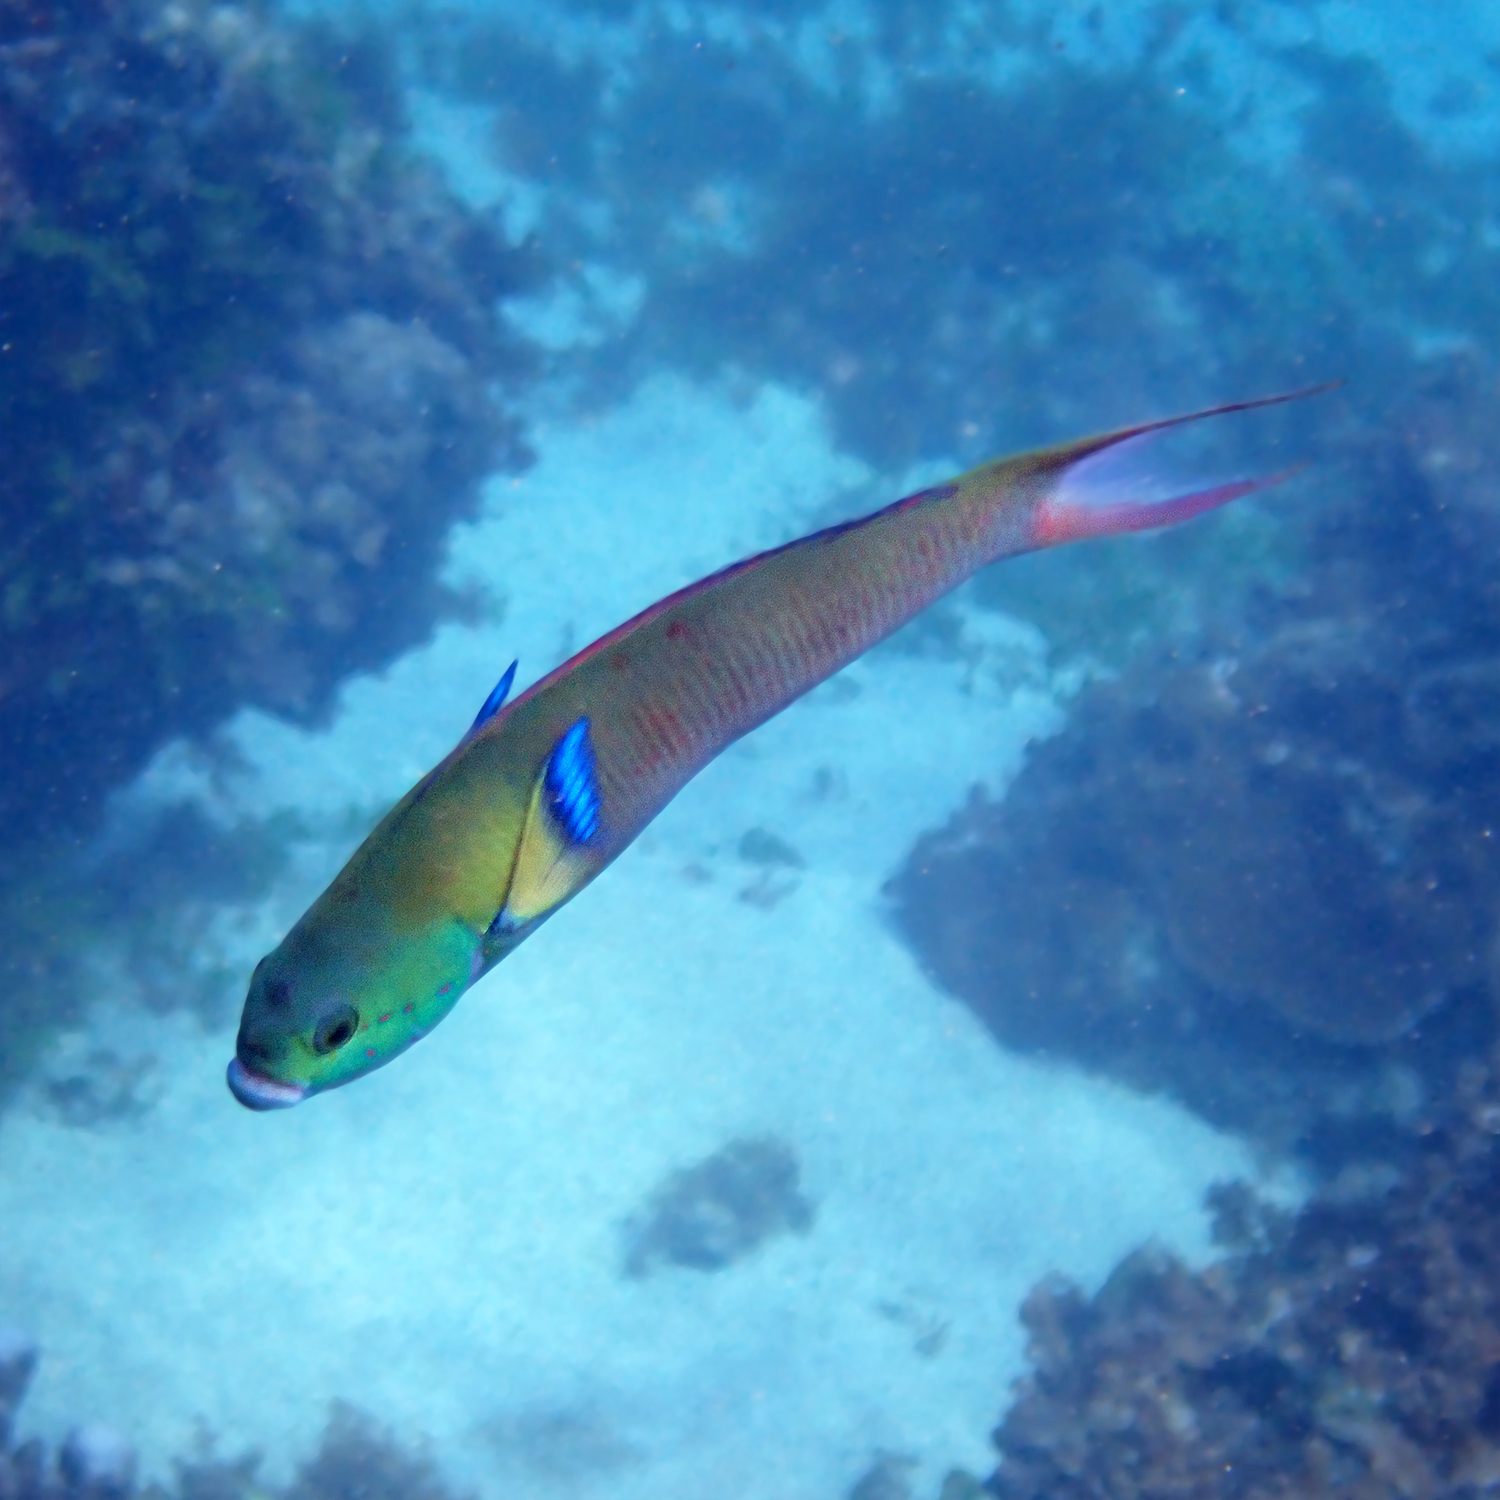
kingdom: Animalia
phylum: Chordata
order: Perciformes
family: Labridae
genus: Thalassoma
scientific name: Thalassoma amblycephalum
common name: Bluehead wrasse
